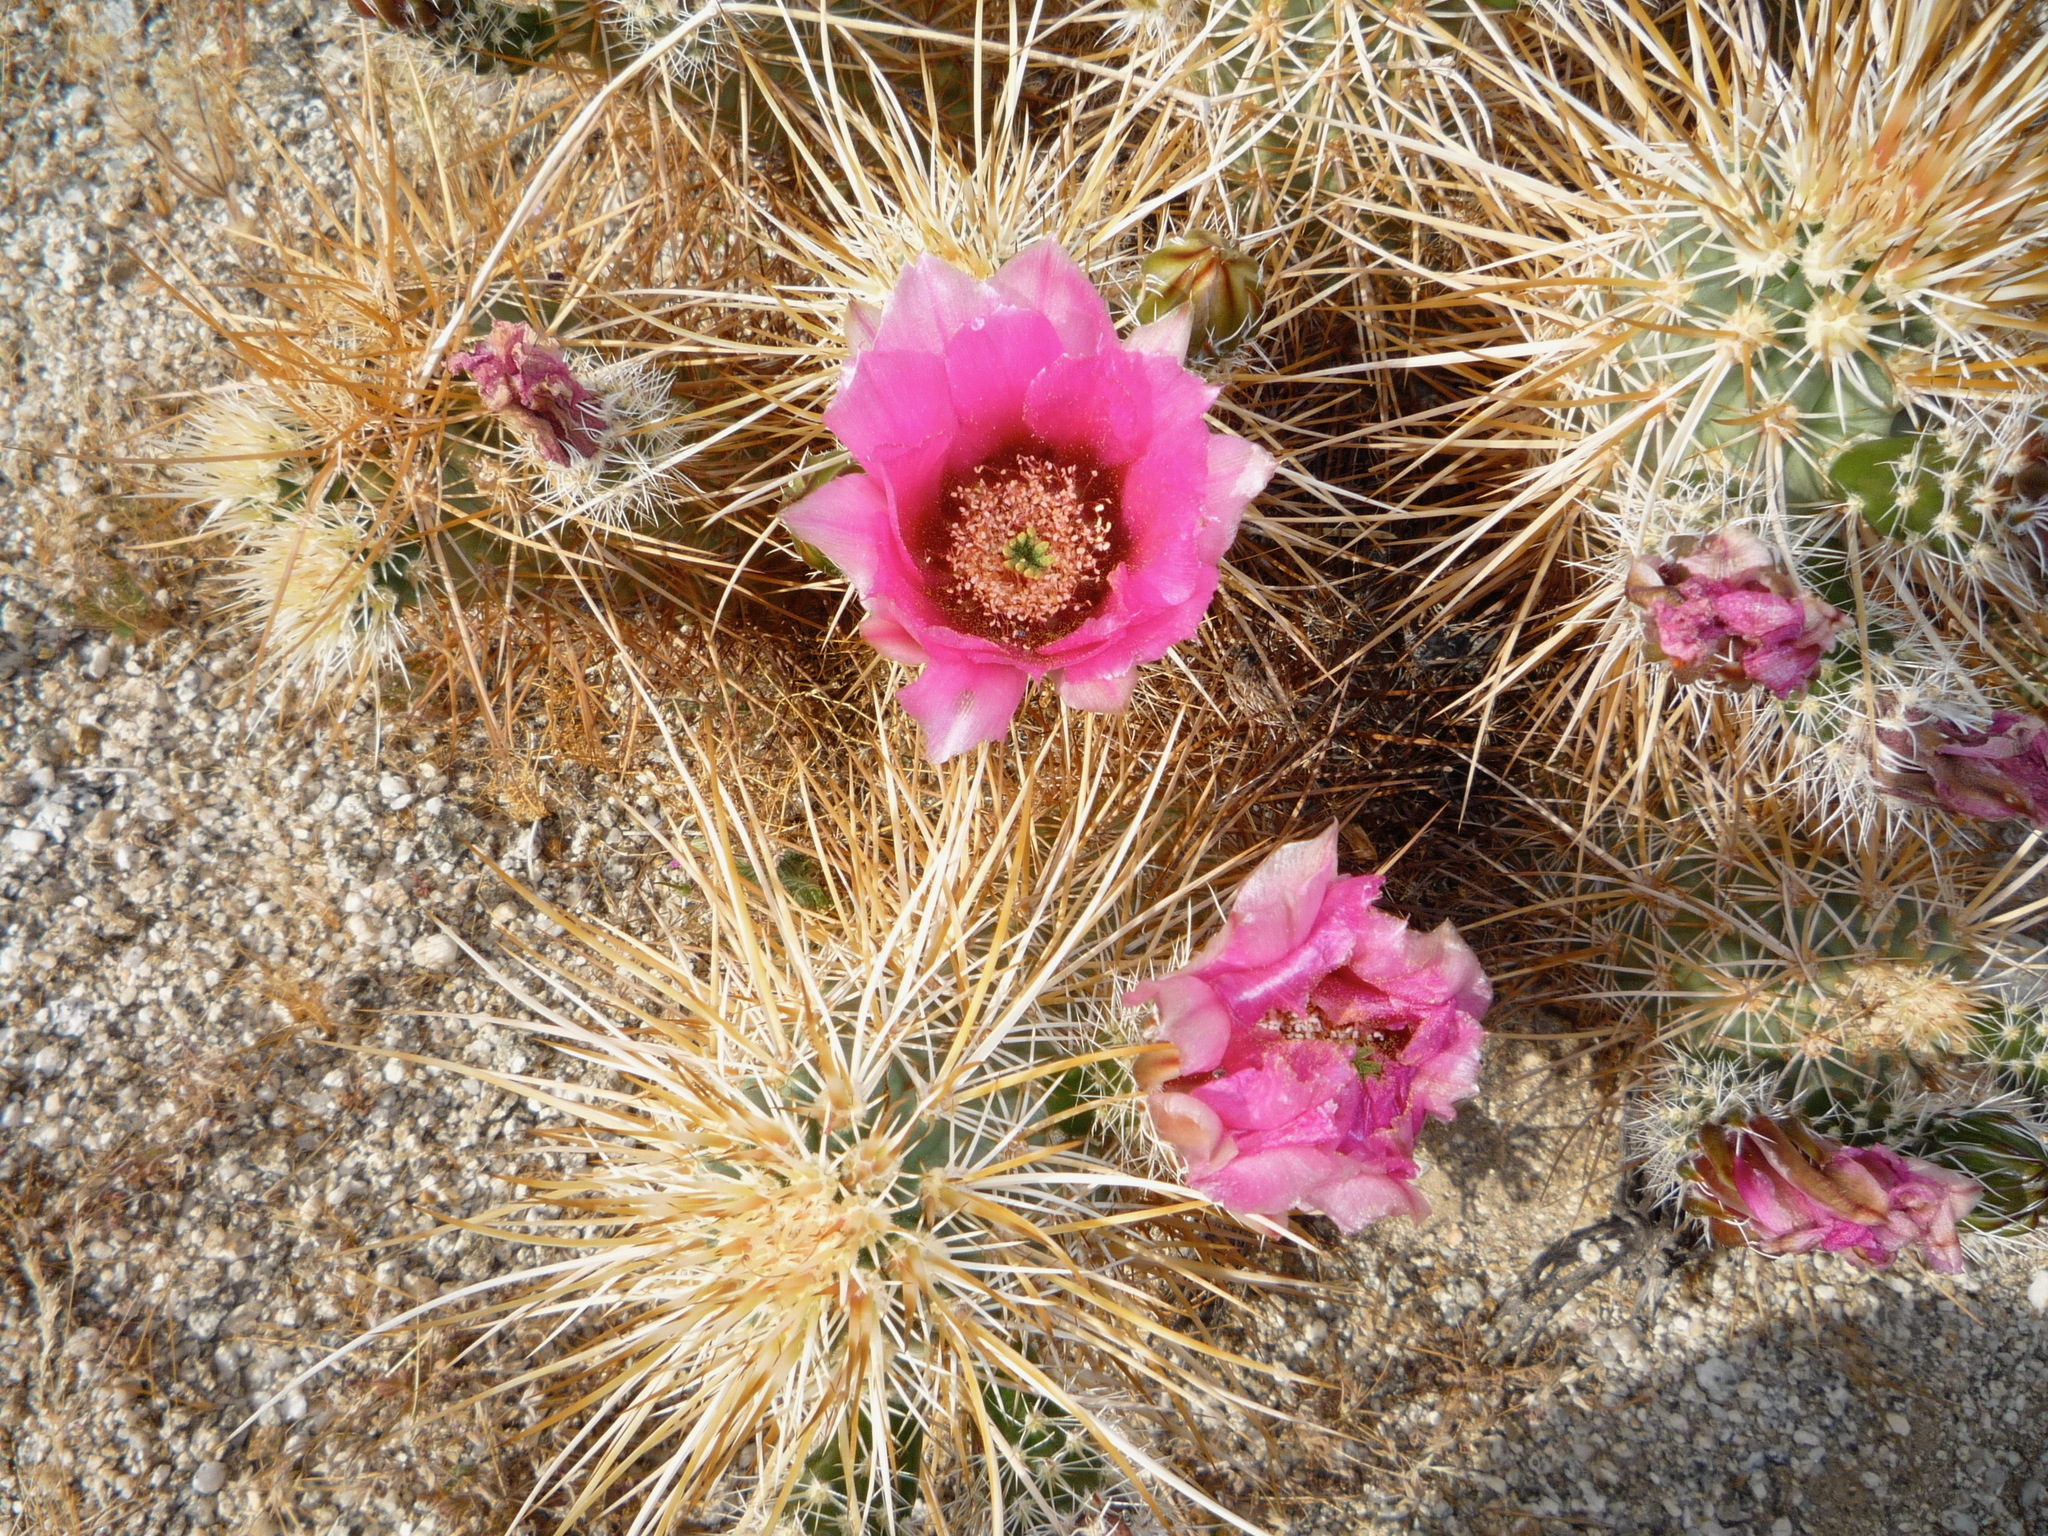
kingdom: Plantae
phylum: Tracheophyta
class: Magnoliopsida
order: Caryophyllales
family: Cactaceae
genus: Echinocereus
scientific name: Echinocereus engelmannii
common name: Engelmann's hedgehog cactus
